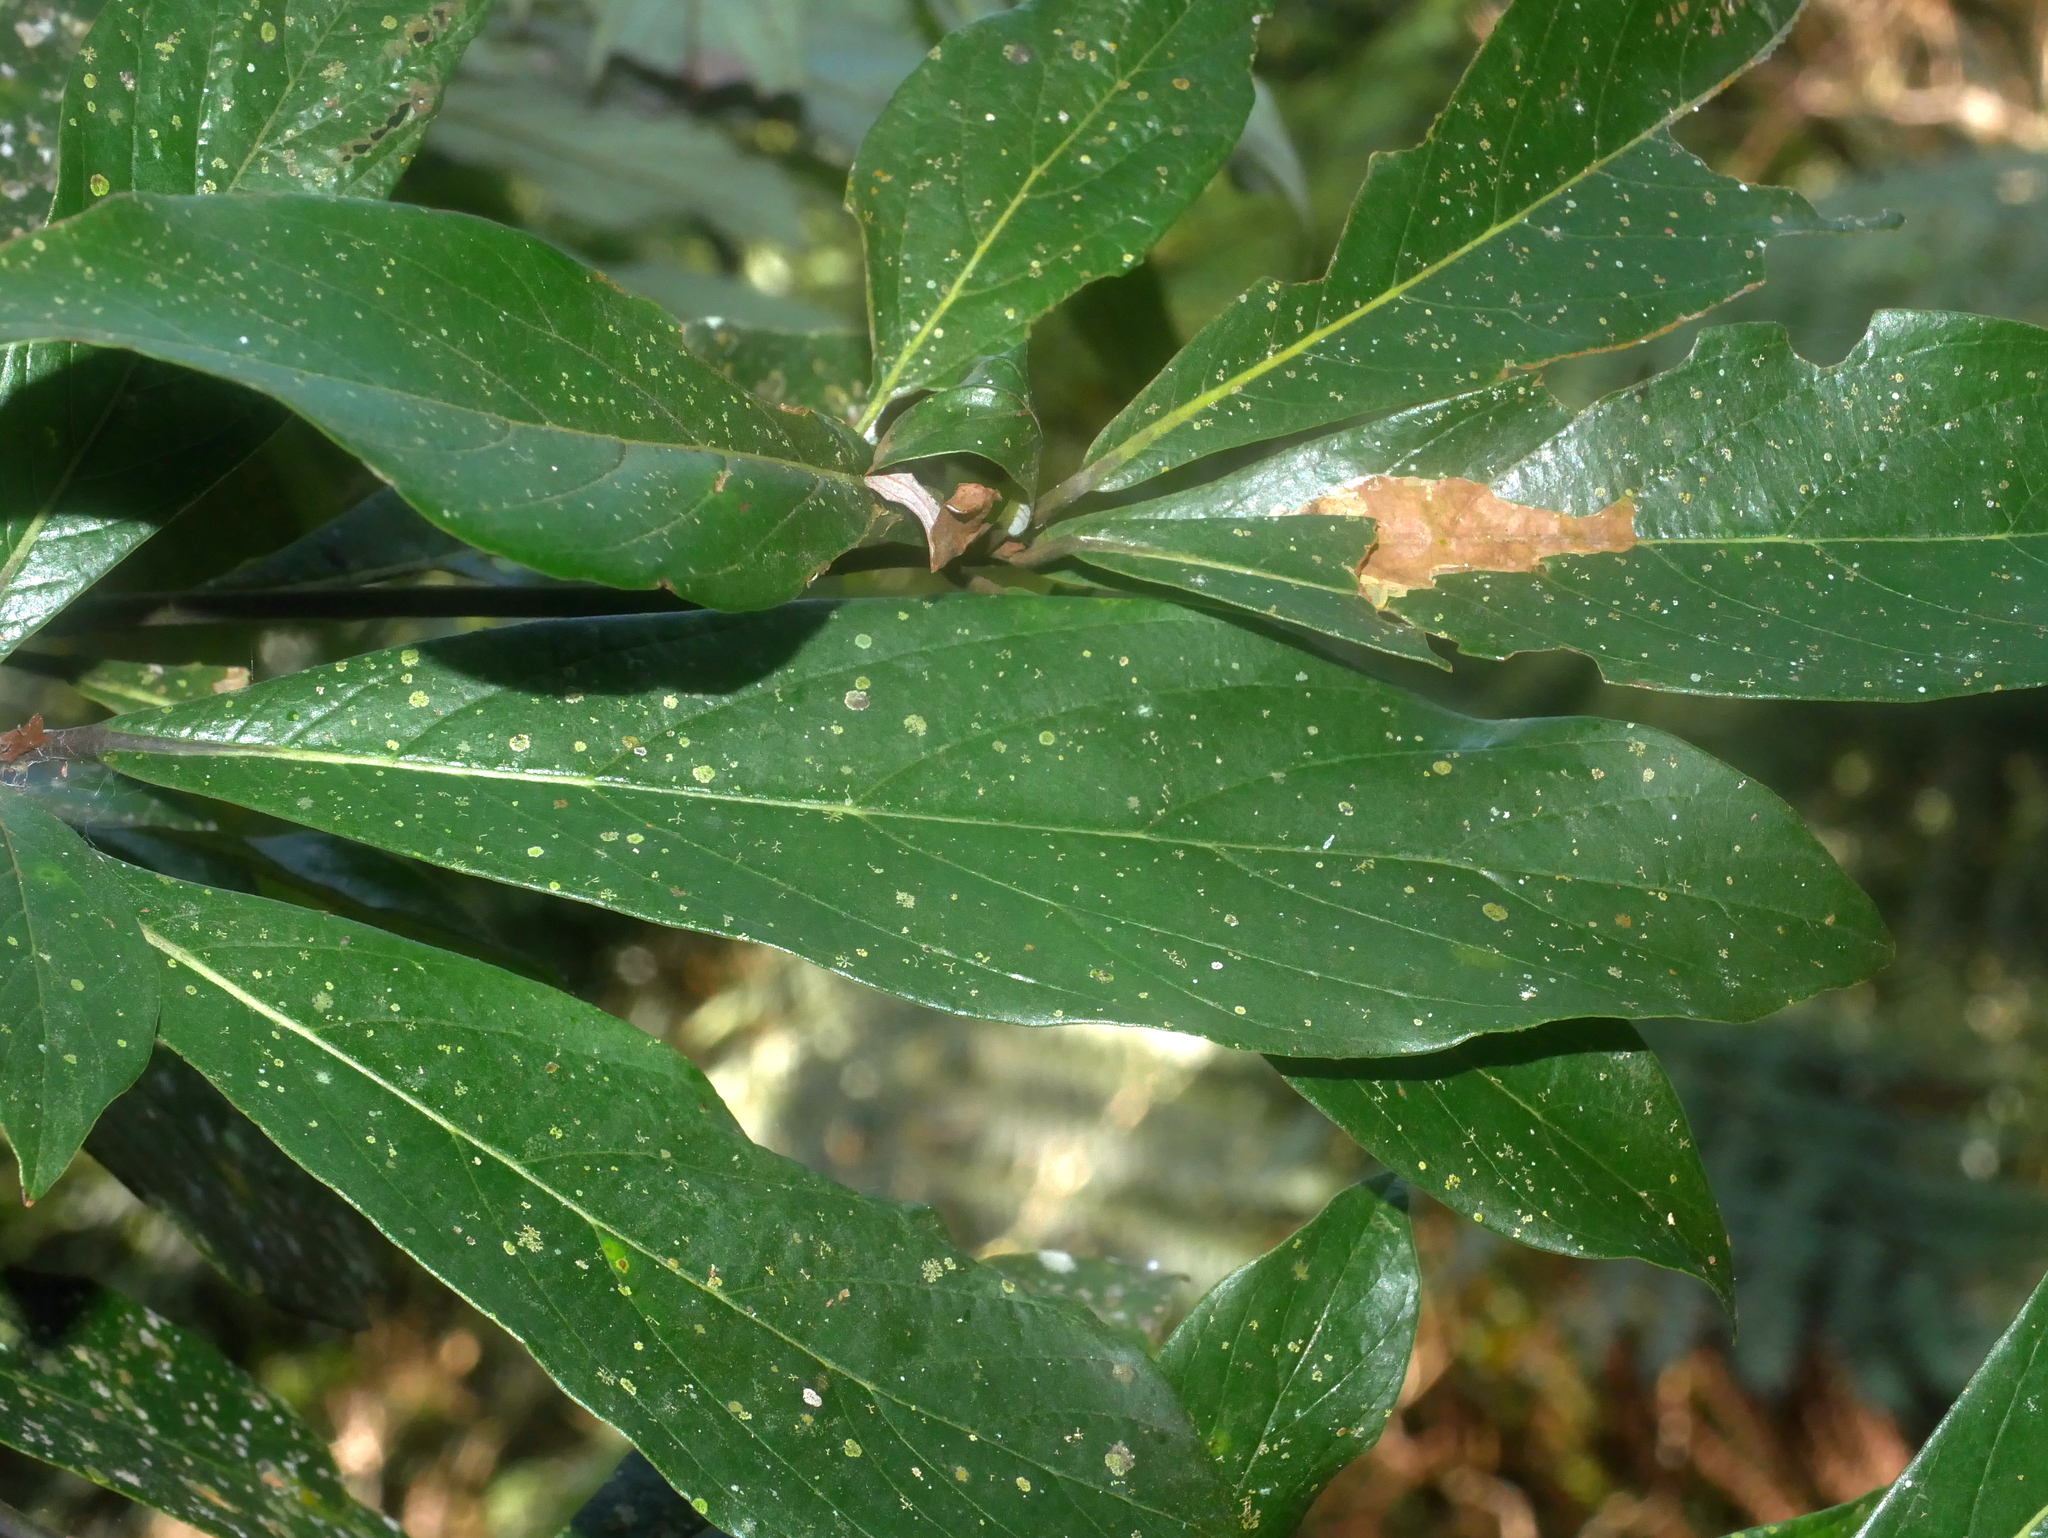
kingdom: Plantae
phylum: Tracheophyta
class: Magnoliopsida
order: Laurales
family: Lauraceae
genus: Phoebe
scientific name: Phoebe formosana
